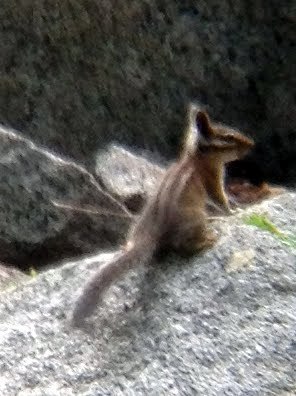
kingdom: Animalia
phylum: Chordata
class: Mammalia
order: Rodentia
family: Sciuridae
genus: Tamias
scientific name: Tamias quadrimaculatus
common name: Long-eared chipmunk
